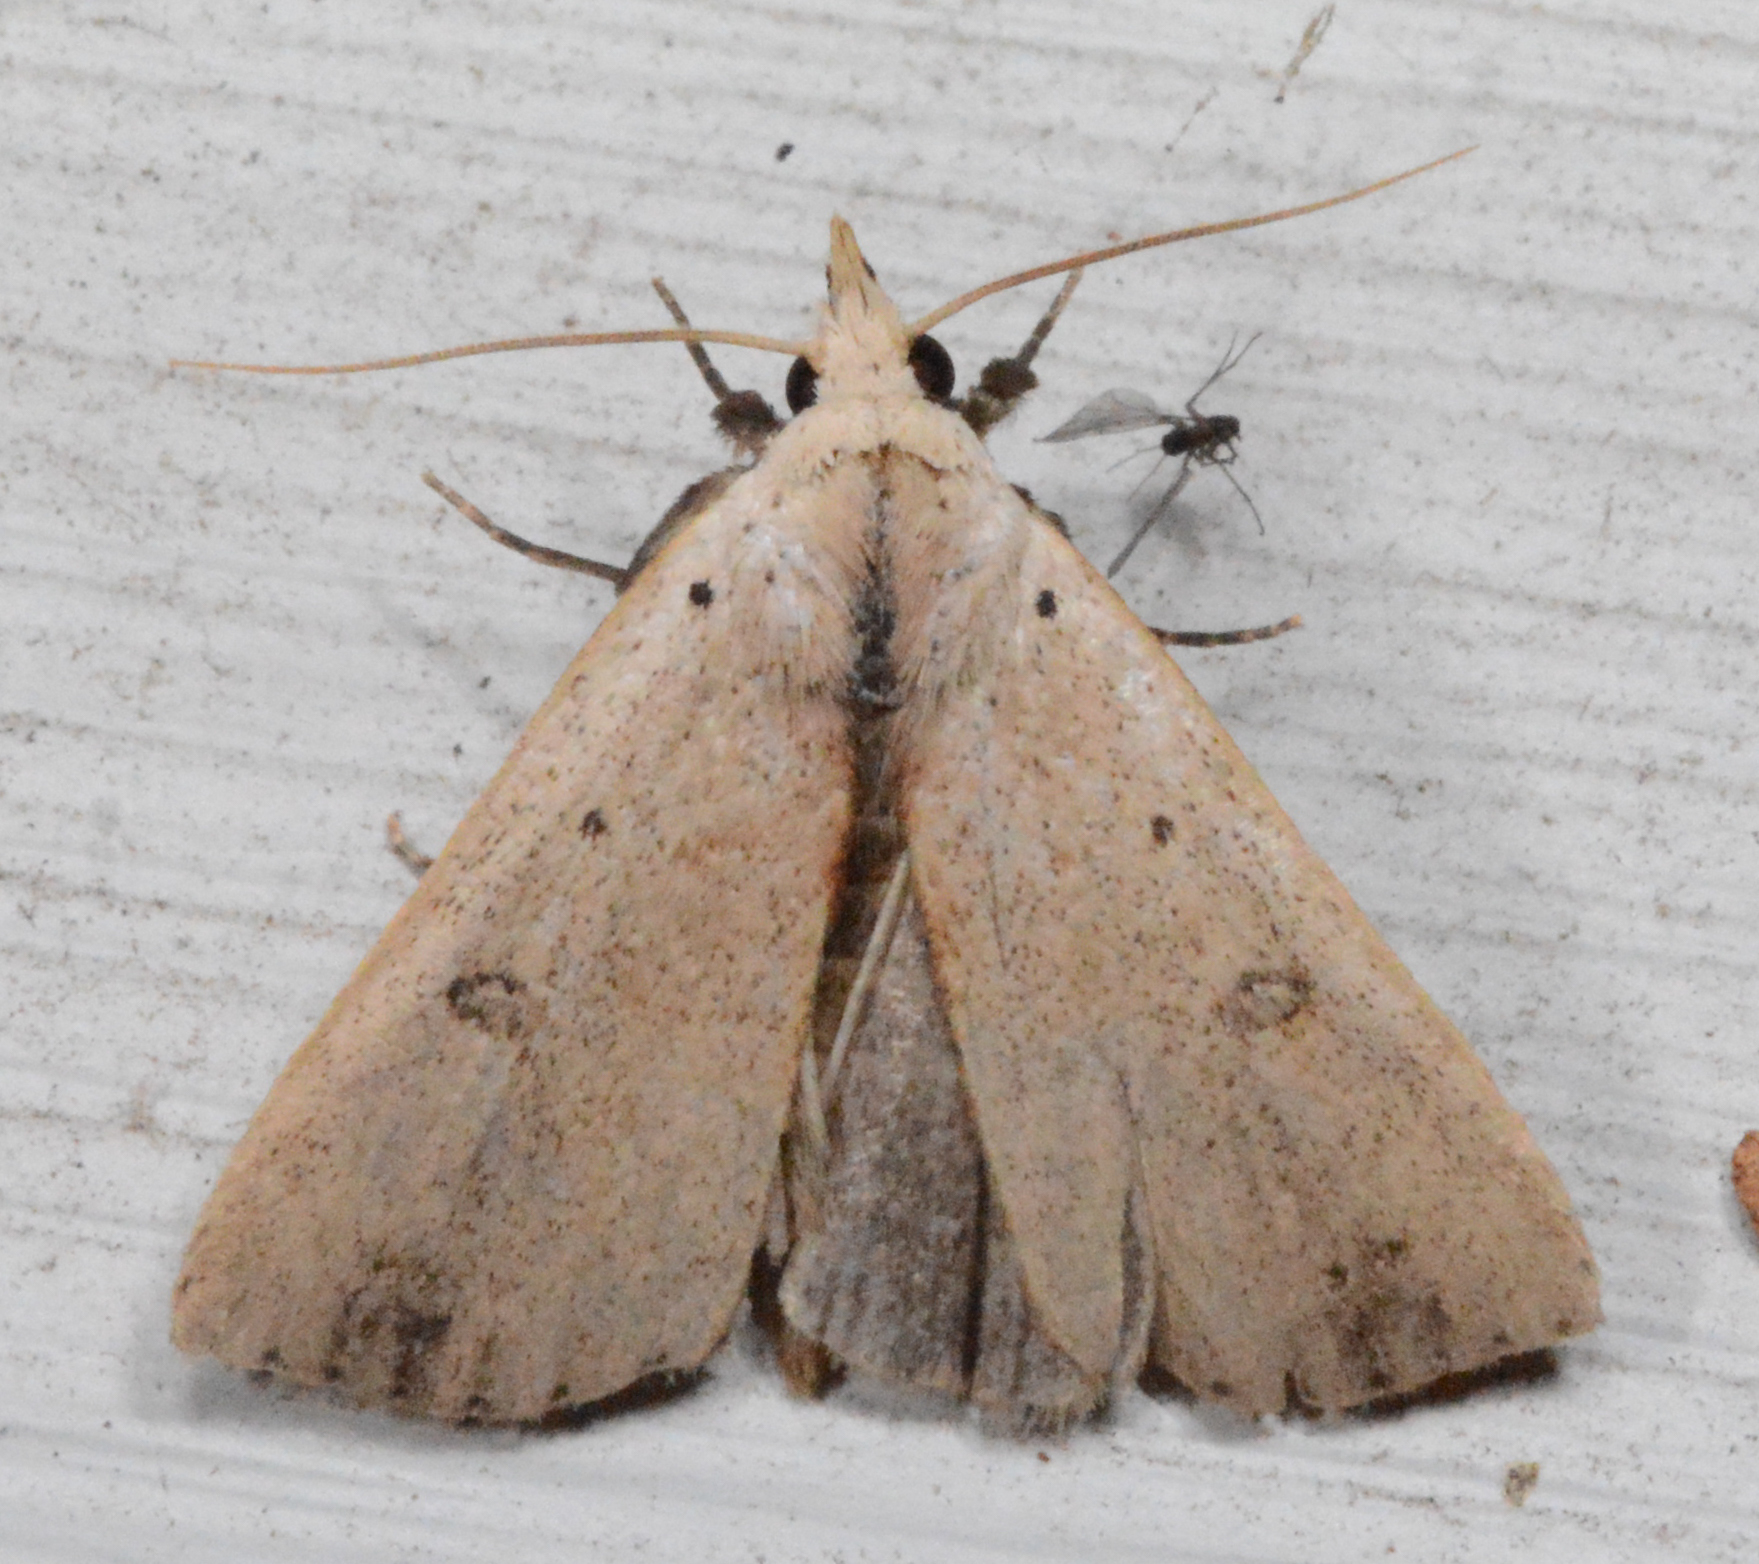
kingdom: Animalia
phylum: Arthropoda
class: Insecta
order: Lepidoptera
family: Erebidae
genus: Scolecocampa
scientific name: Scolecocampa liburna
